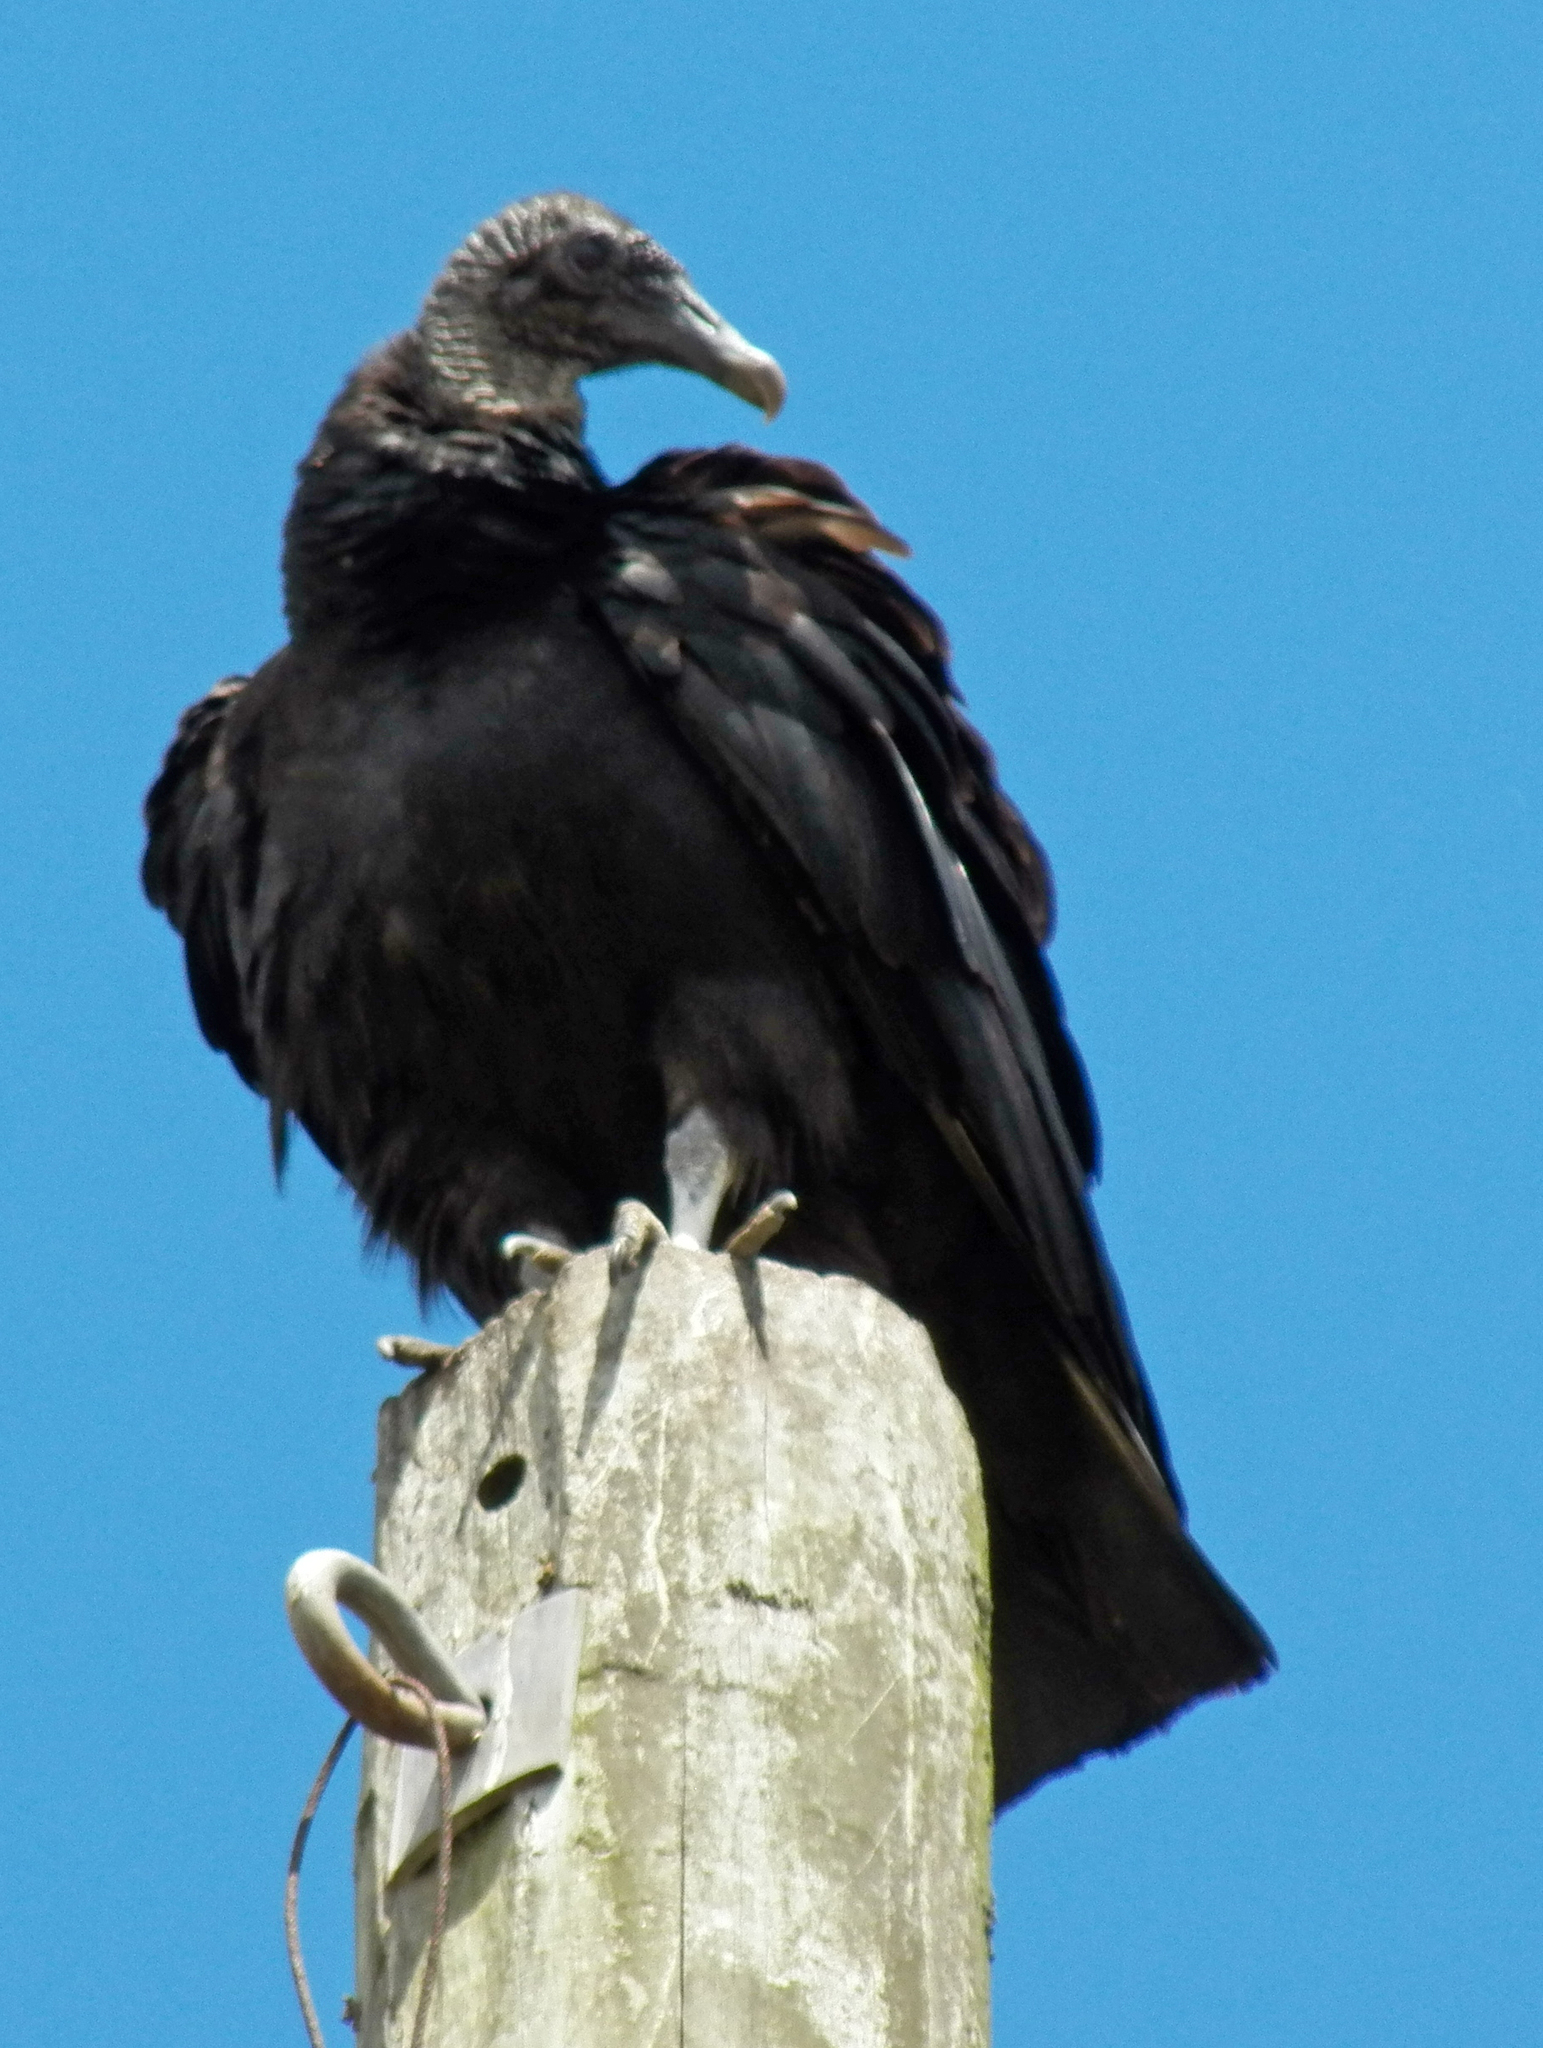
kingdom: Animalia
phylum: Chordata
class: Aves
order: Accipitriformes
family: Cathartidae
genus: Coragyps
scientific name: Coragyps atratus
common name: Black vulture
